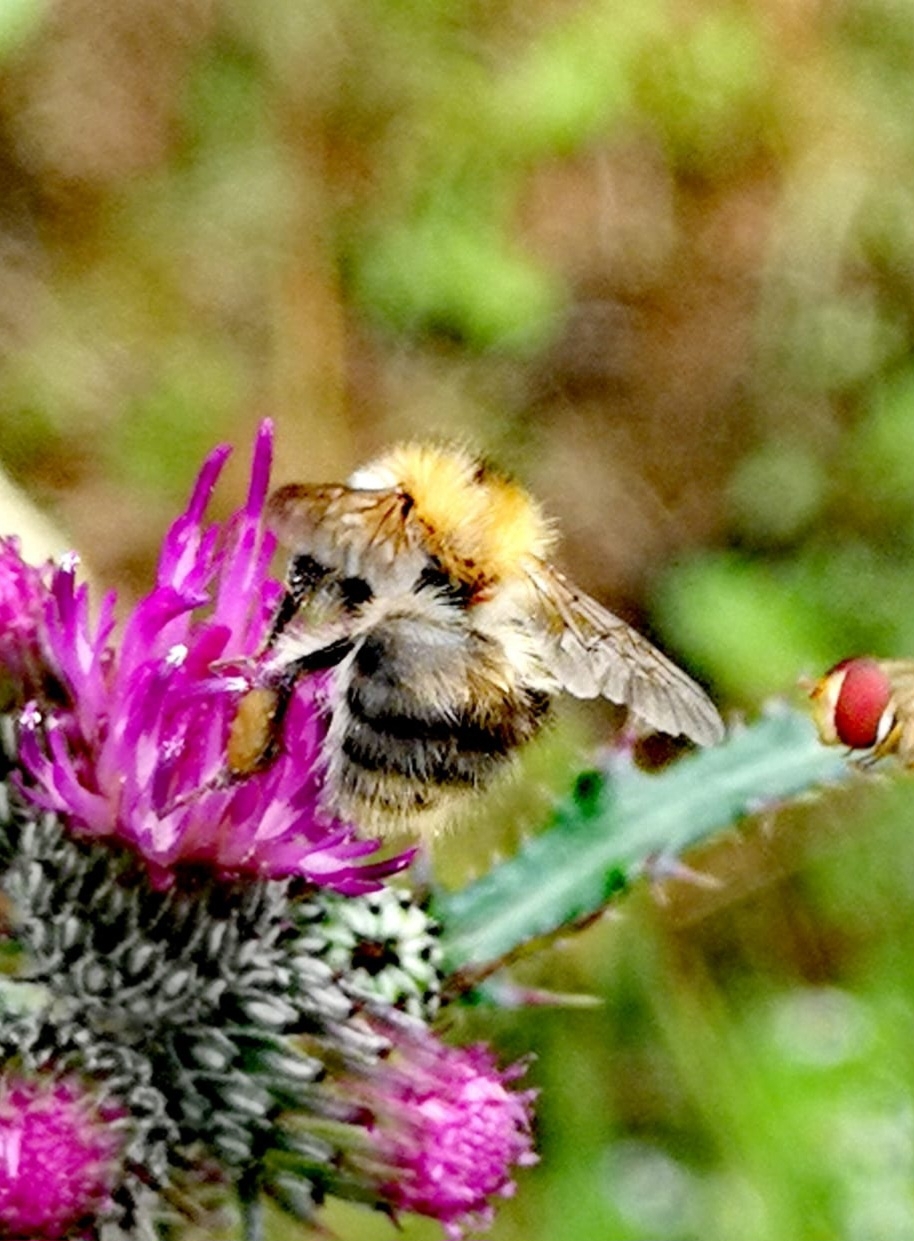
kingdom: Animalia
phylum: Arthropoda
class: Insecta
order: Hymenoptera
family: Apidae
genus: Bombus
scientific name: Bombus pascuorum
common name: Common carder bee
